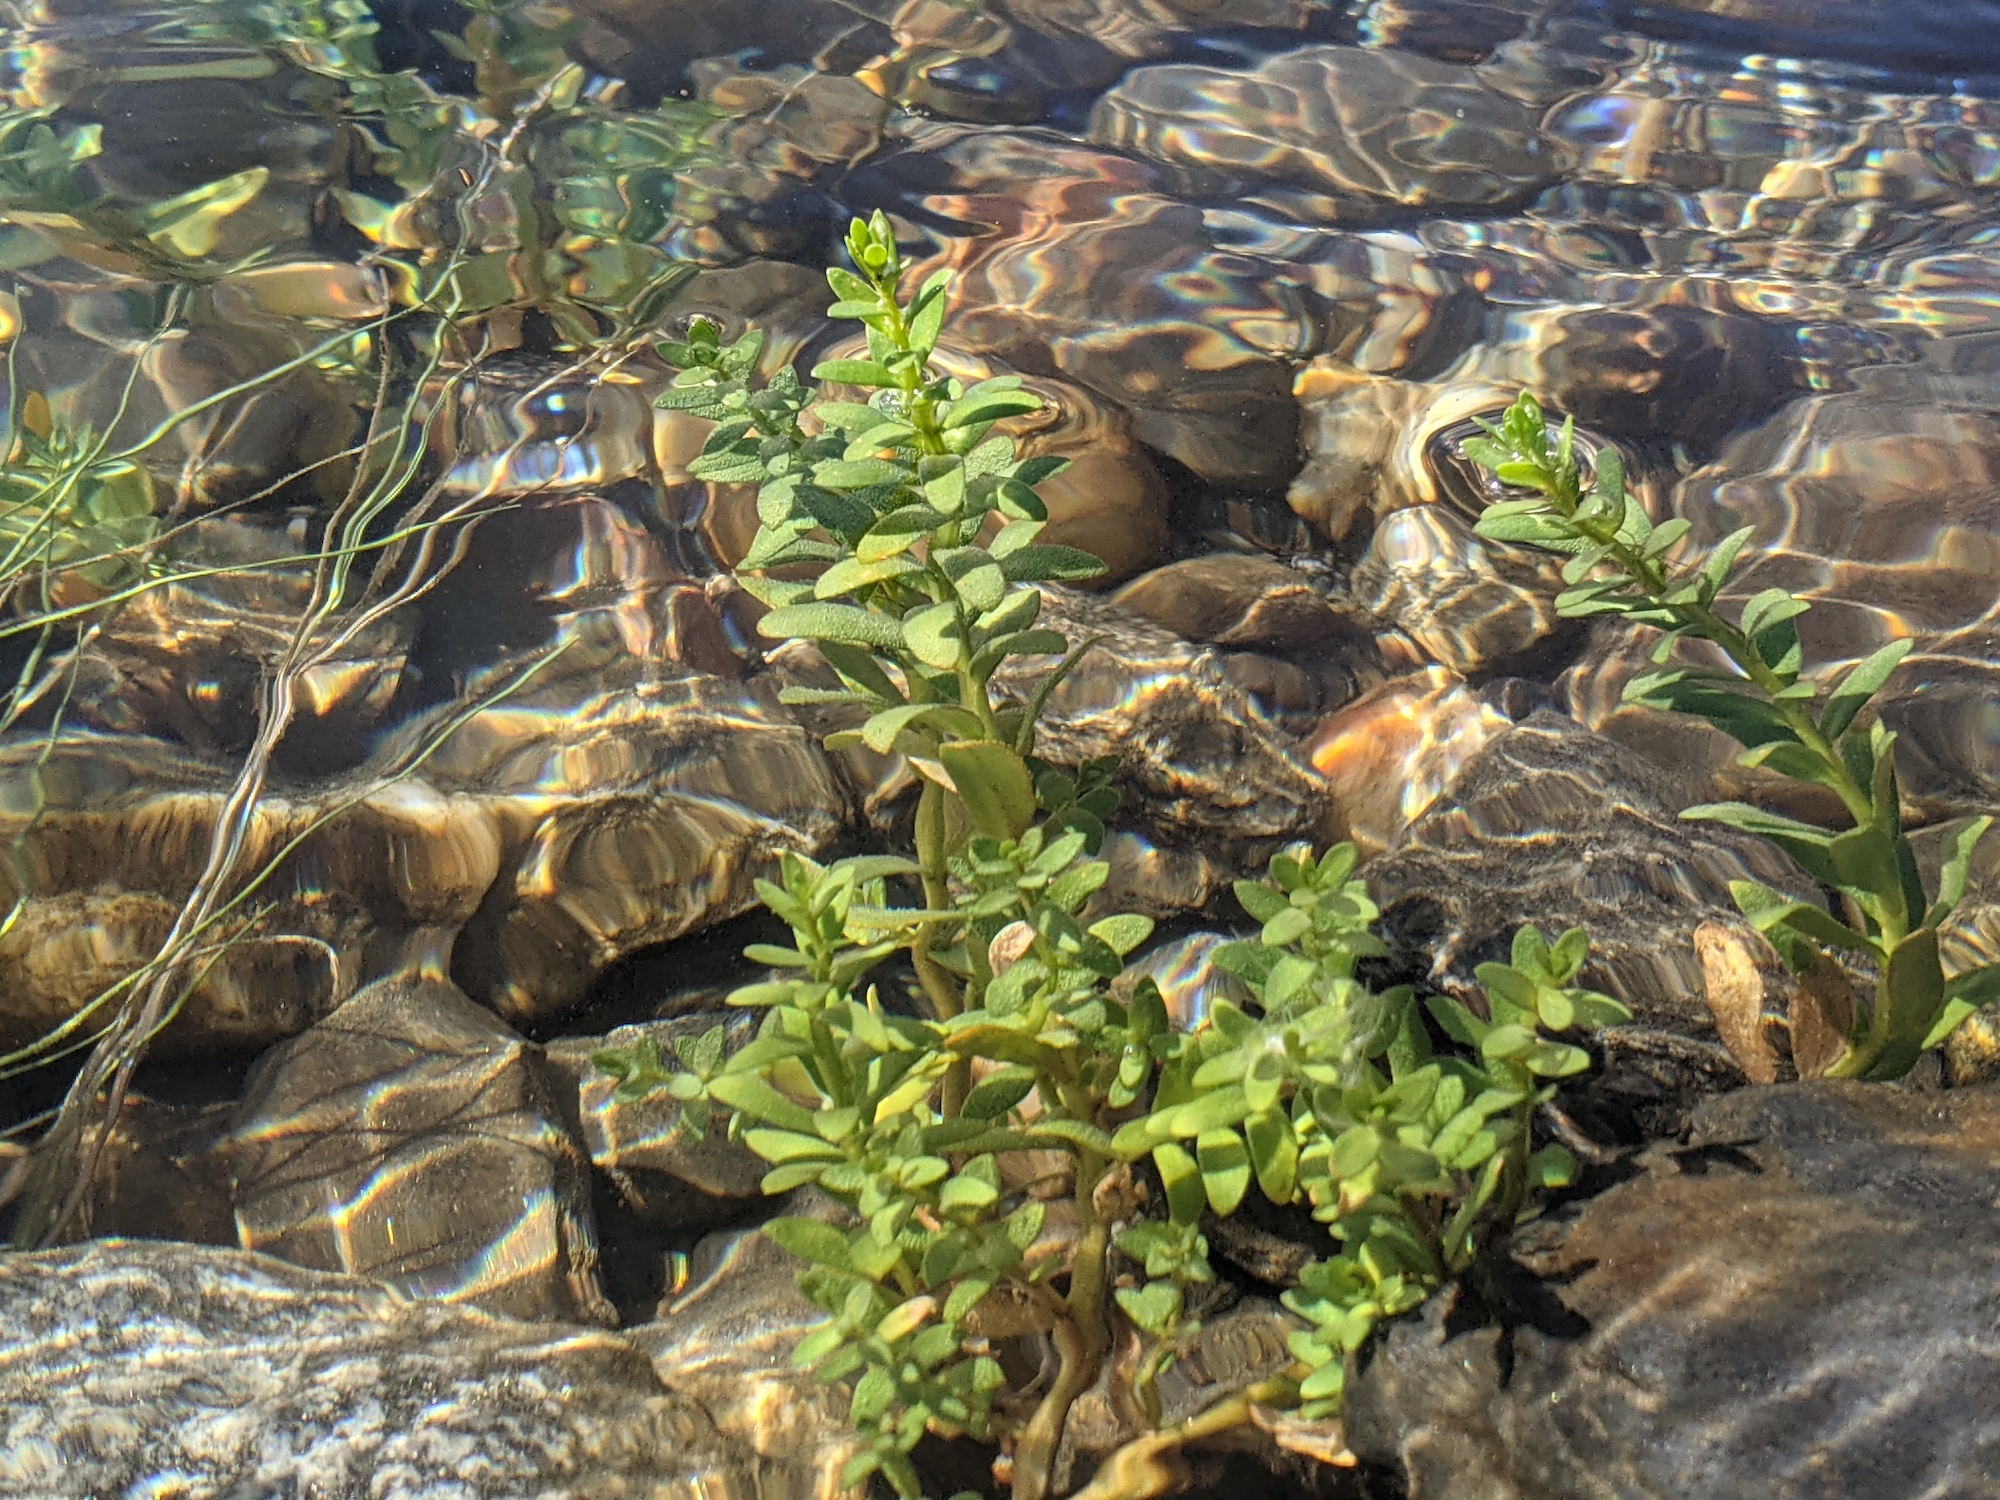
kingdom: Plantae
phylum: Tracheophyta
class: Magnoliopsida
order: Ericales
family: Primulaceae
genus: Lysimachia
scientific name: Lysimachia maritima
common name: Sea milkwort
